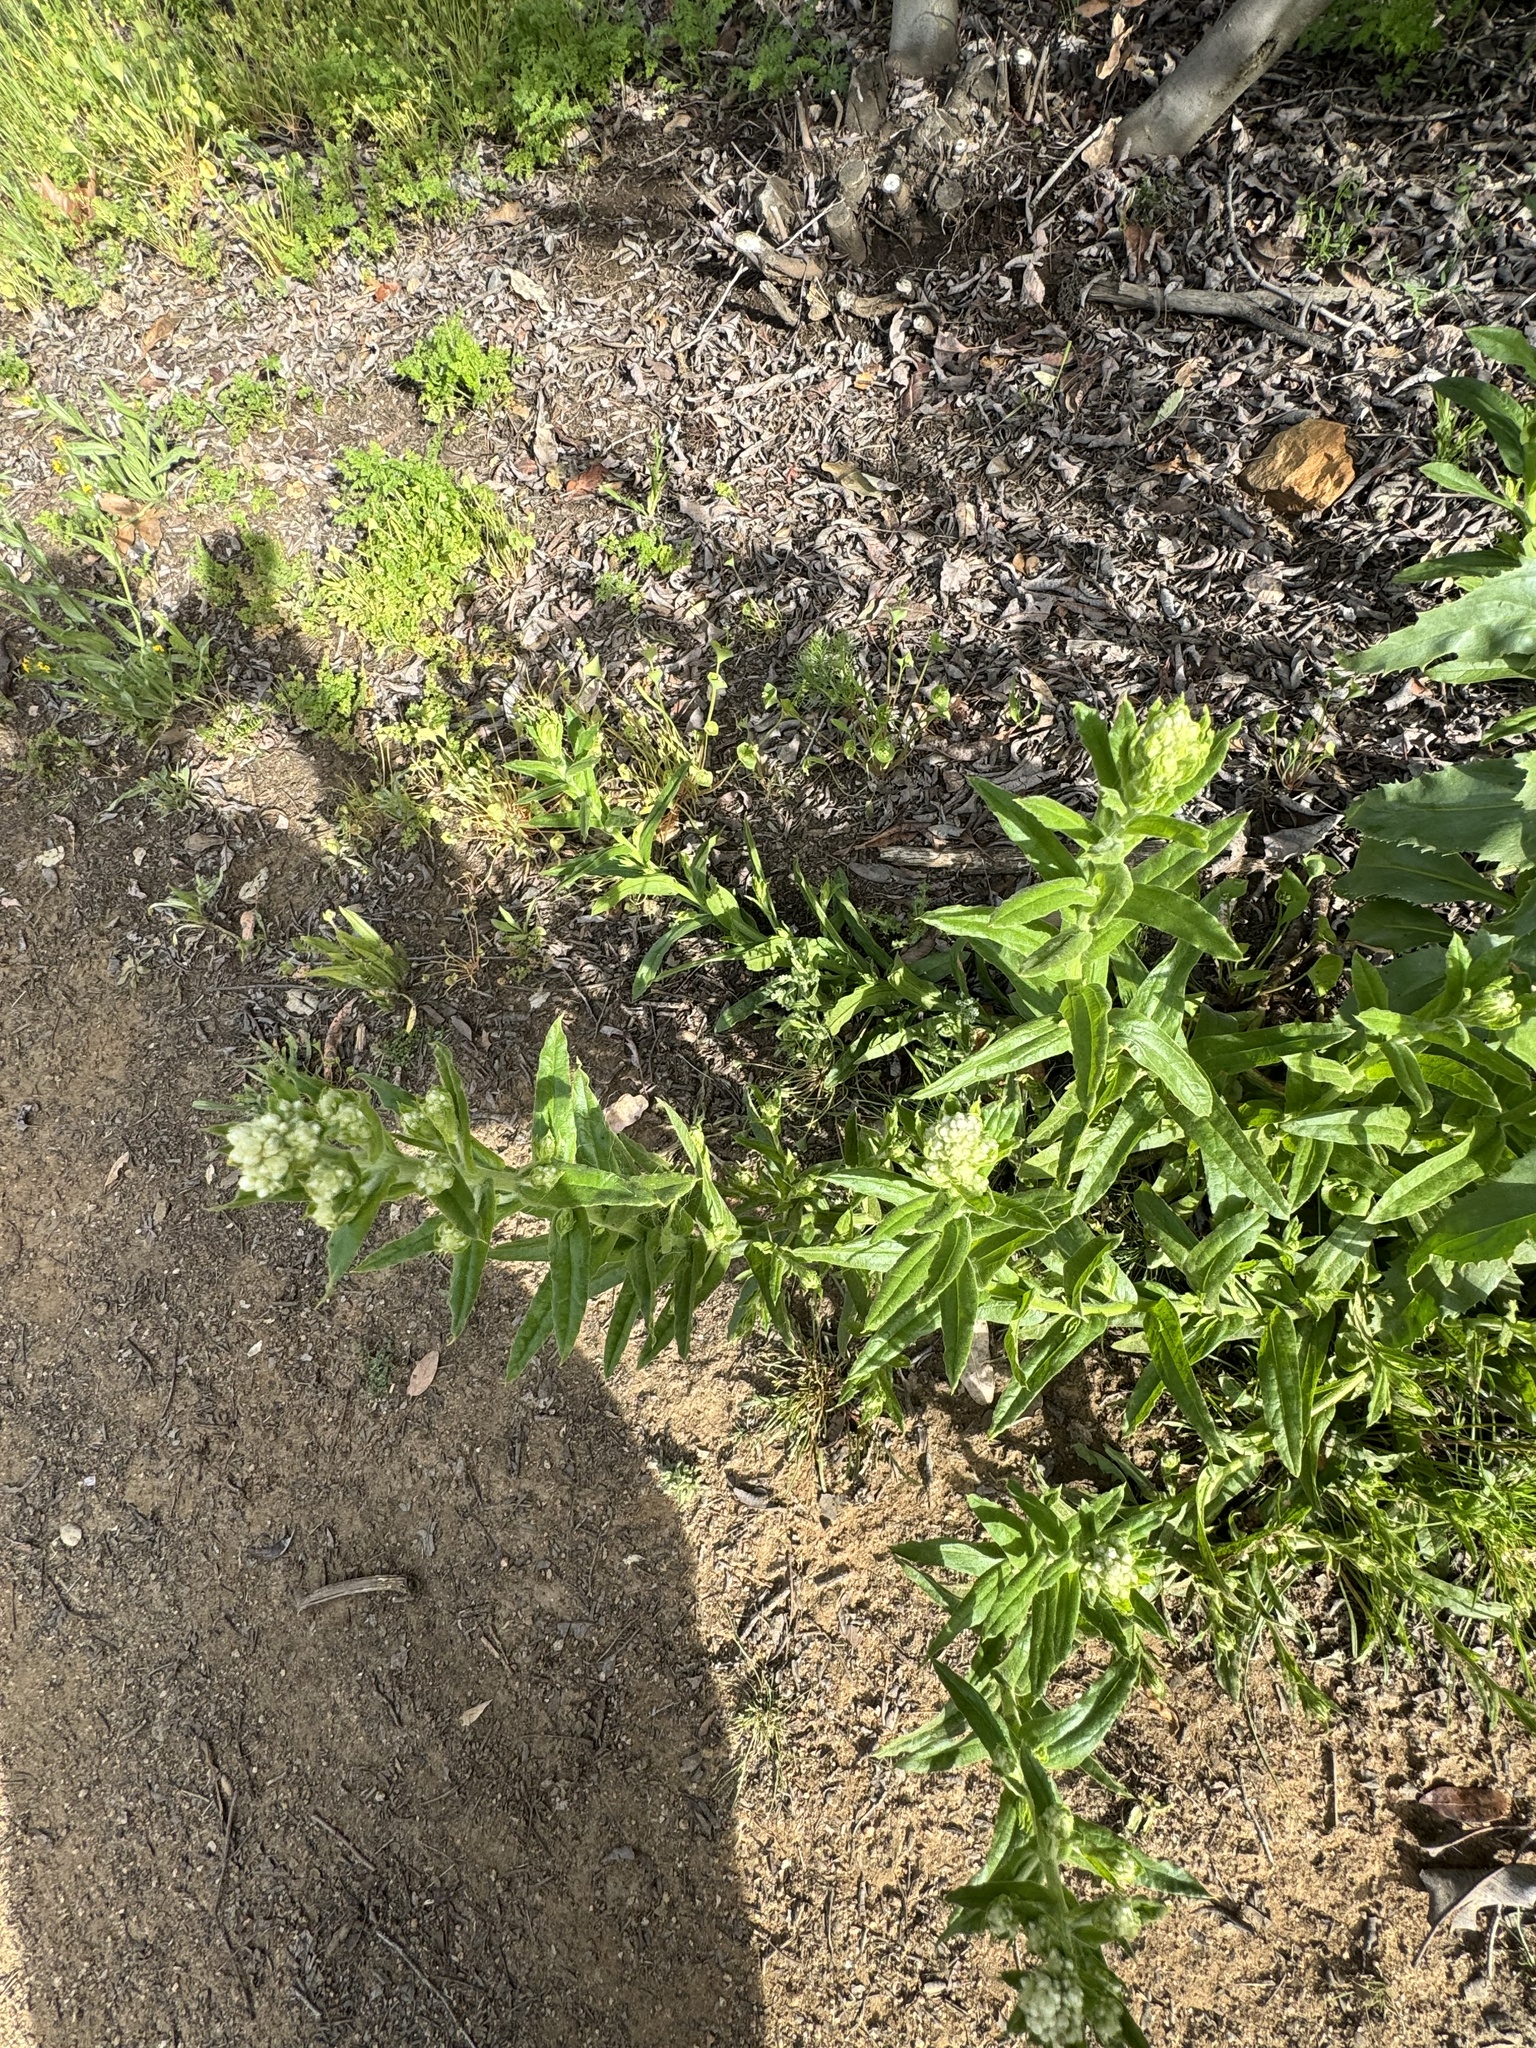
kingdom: Plantae
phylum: Tracheophyta
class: Magnoliopsida
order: Asterales
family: Asteraceae
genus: Pseudognaphalium
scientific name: Pseudognaphalium californicum
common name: California rabbit-tobacco
